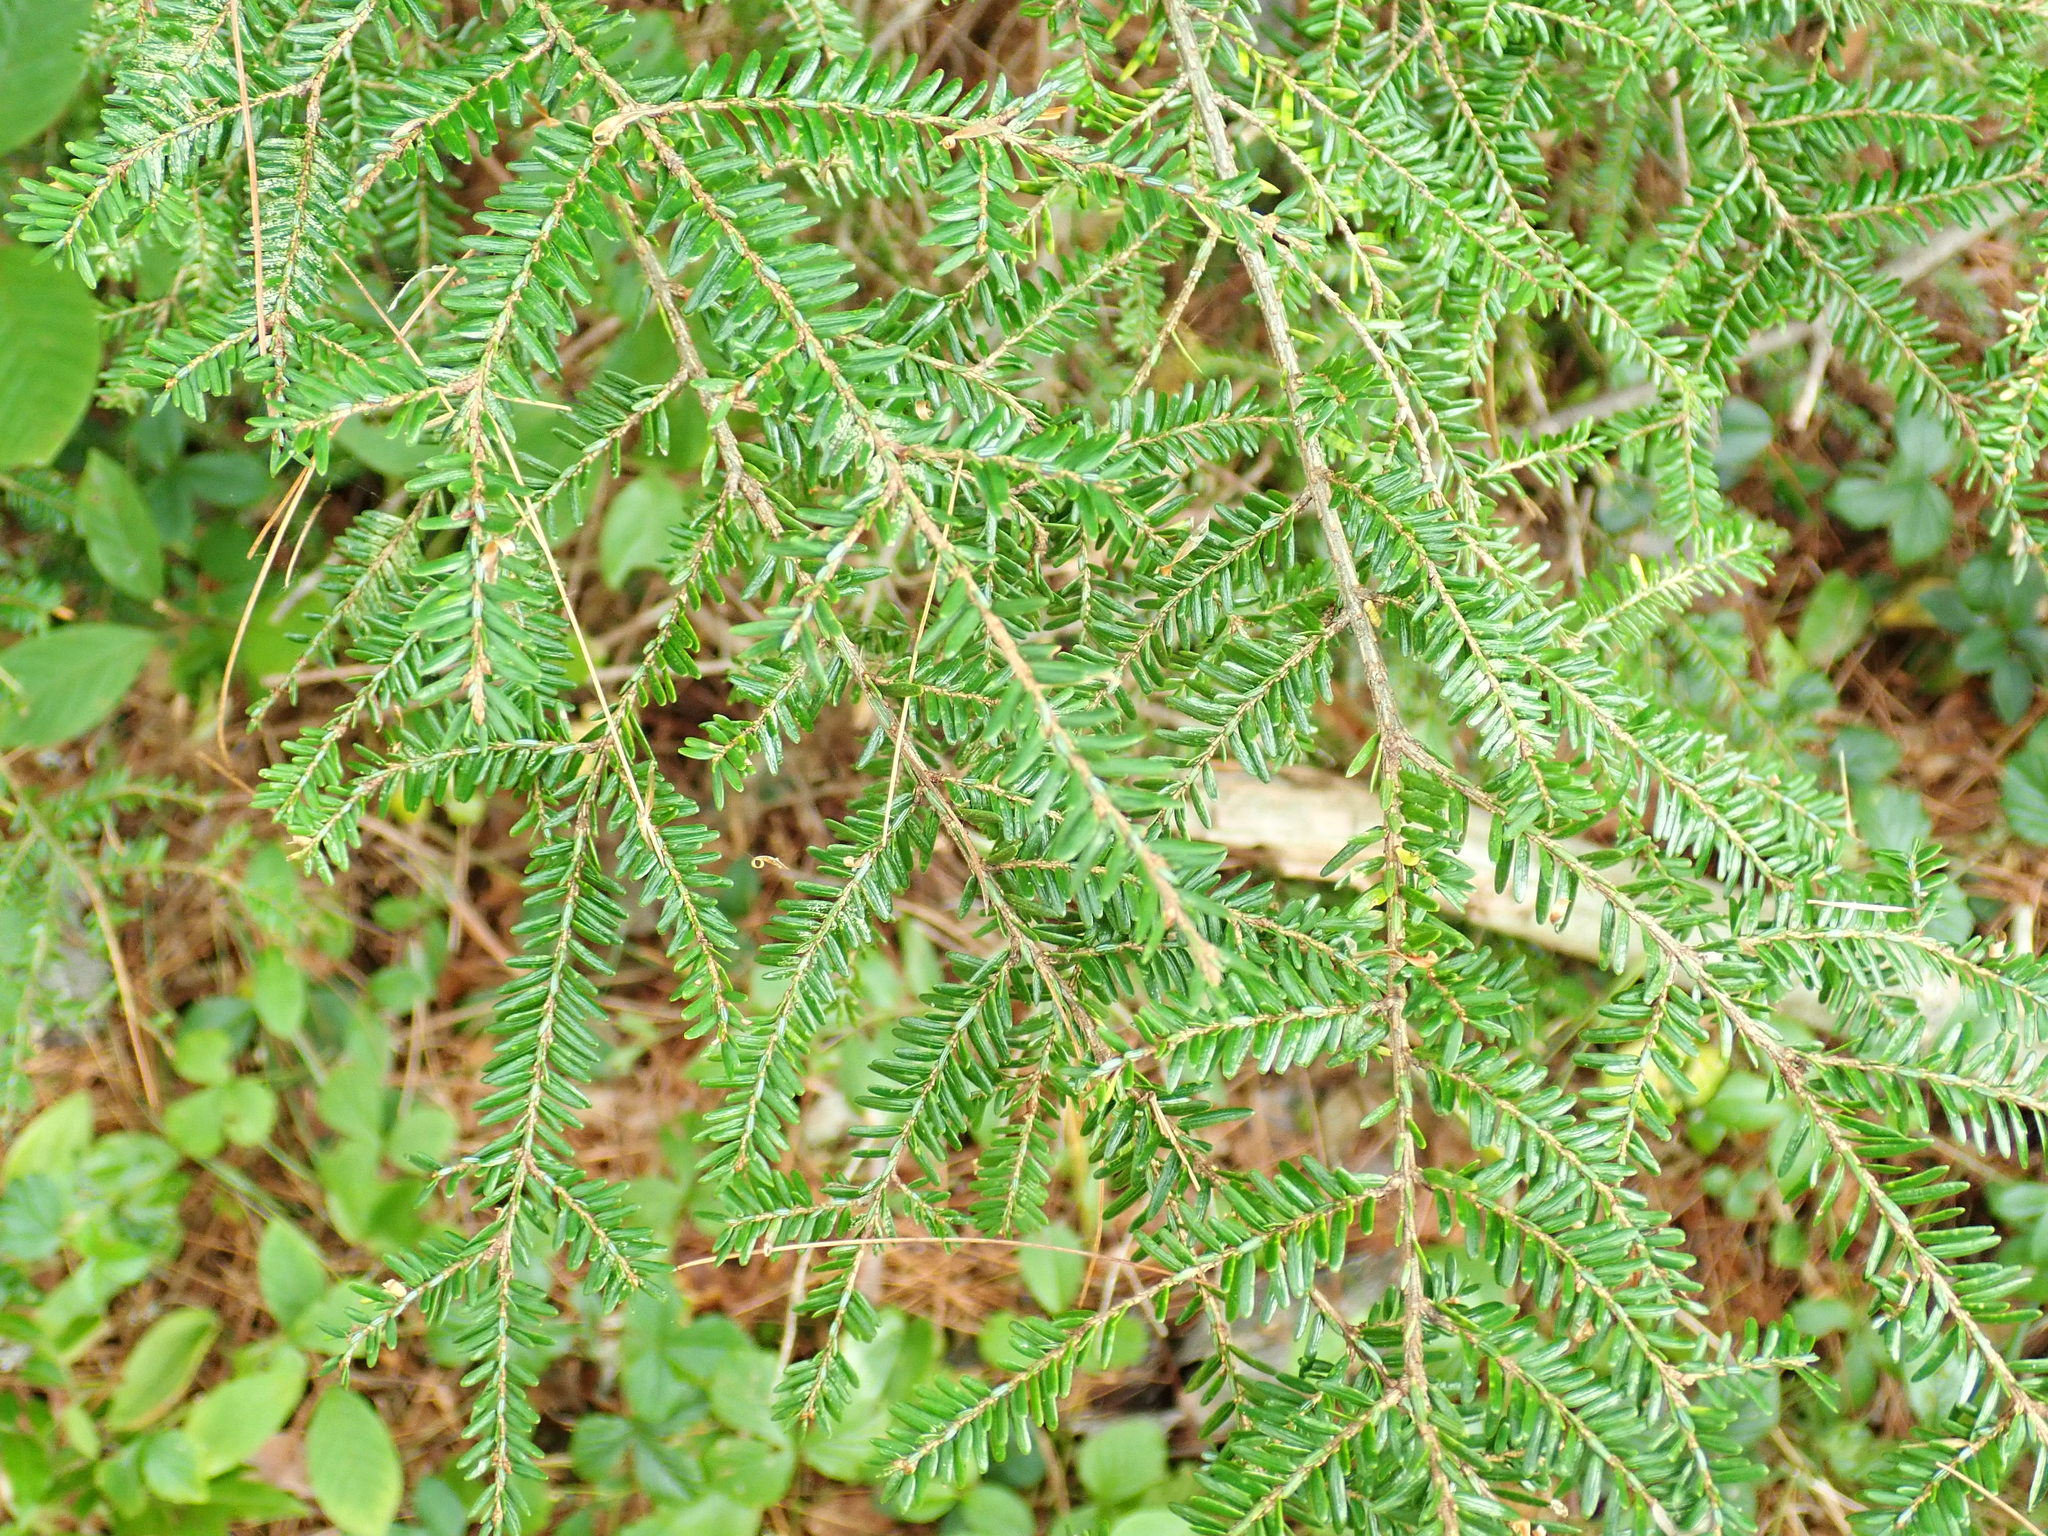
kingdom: Plantae
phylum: Tracheophyta
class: Pinopsida
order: Pinales
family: Pinaceae
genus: Tsuga
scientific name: Tsuga canadensis
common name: Eastern hemlock
